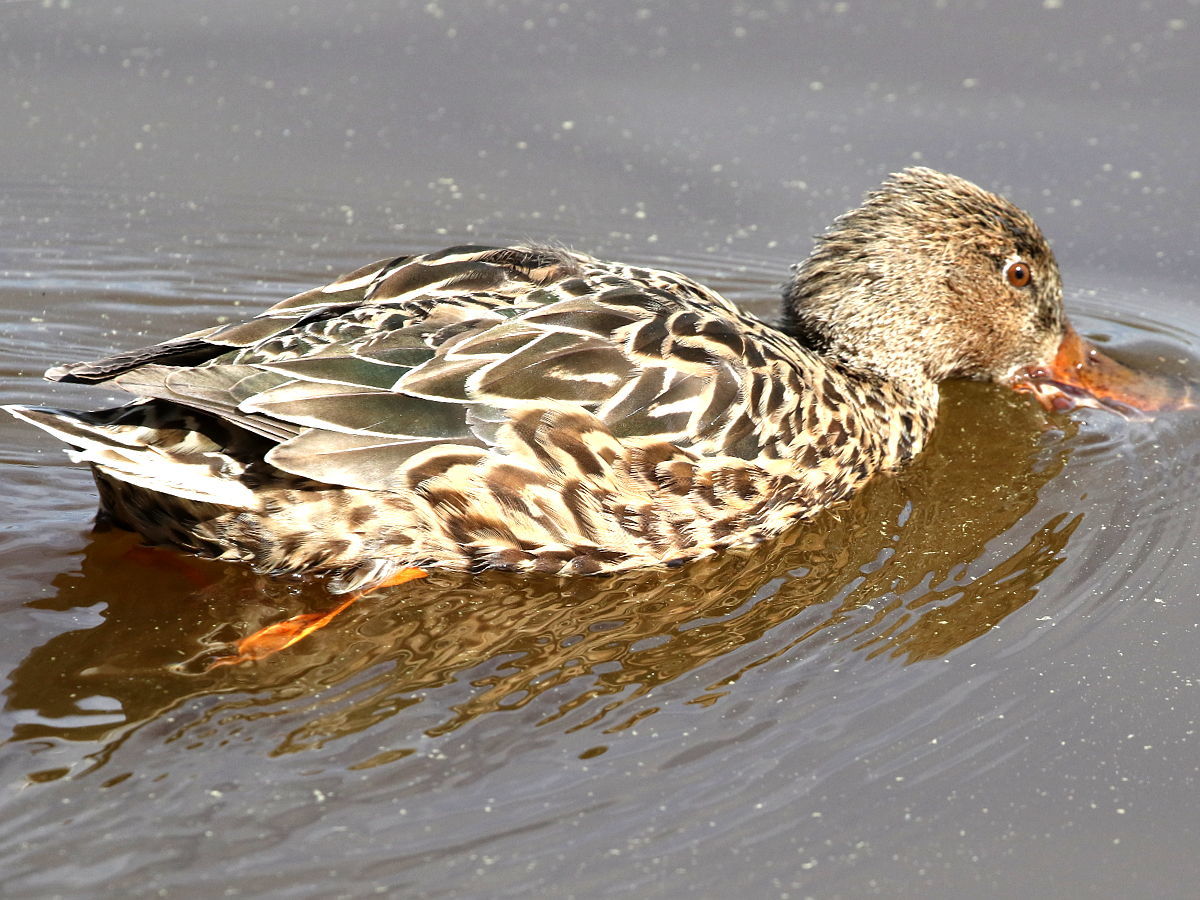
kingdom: Animalia
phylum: Chordata
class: Aves
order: Anseriformes
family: Anatidae
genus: Spatula
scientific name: Spatula clypeata
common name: Northern shoveler
